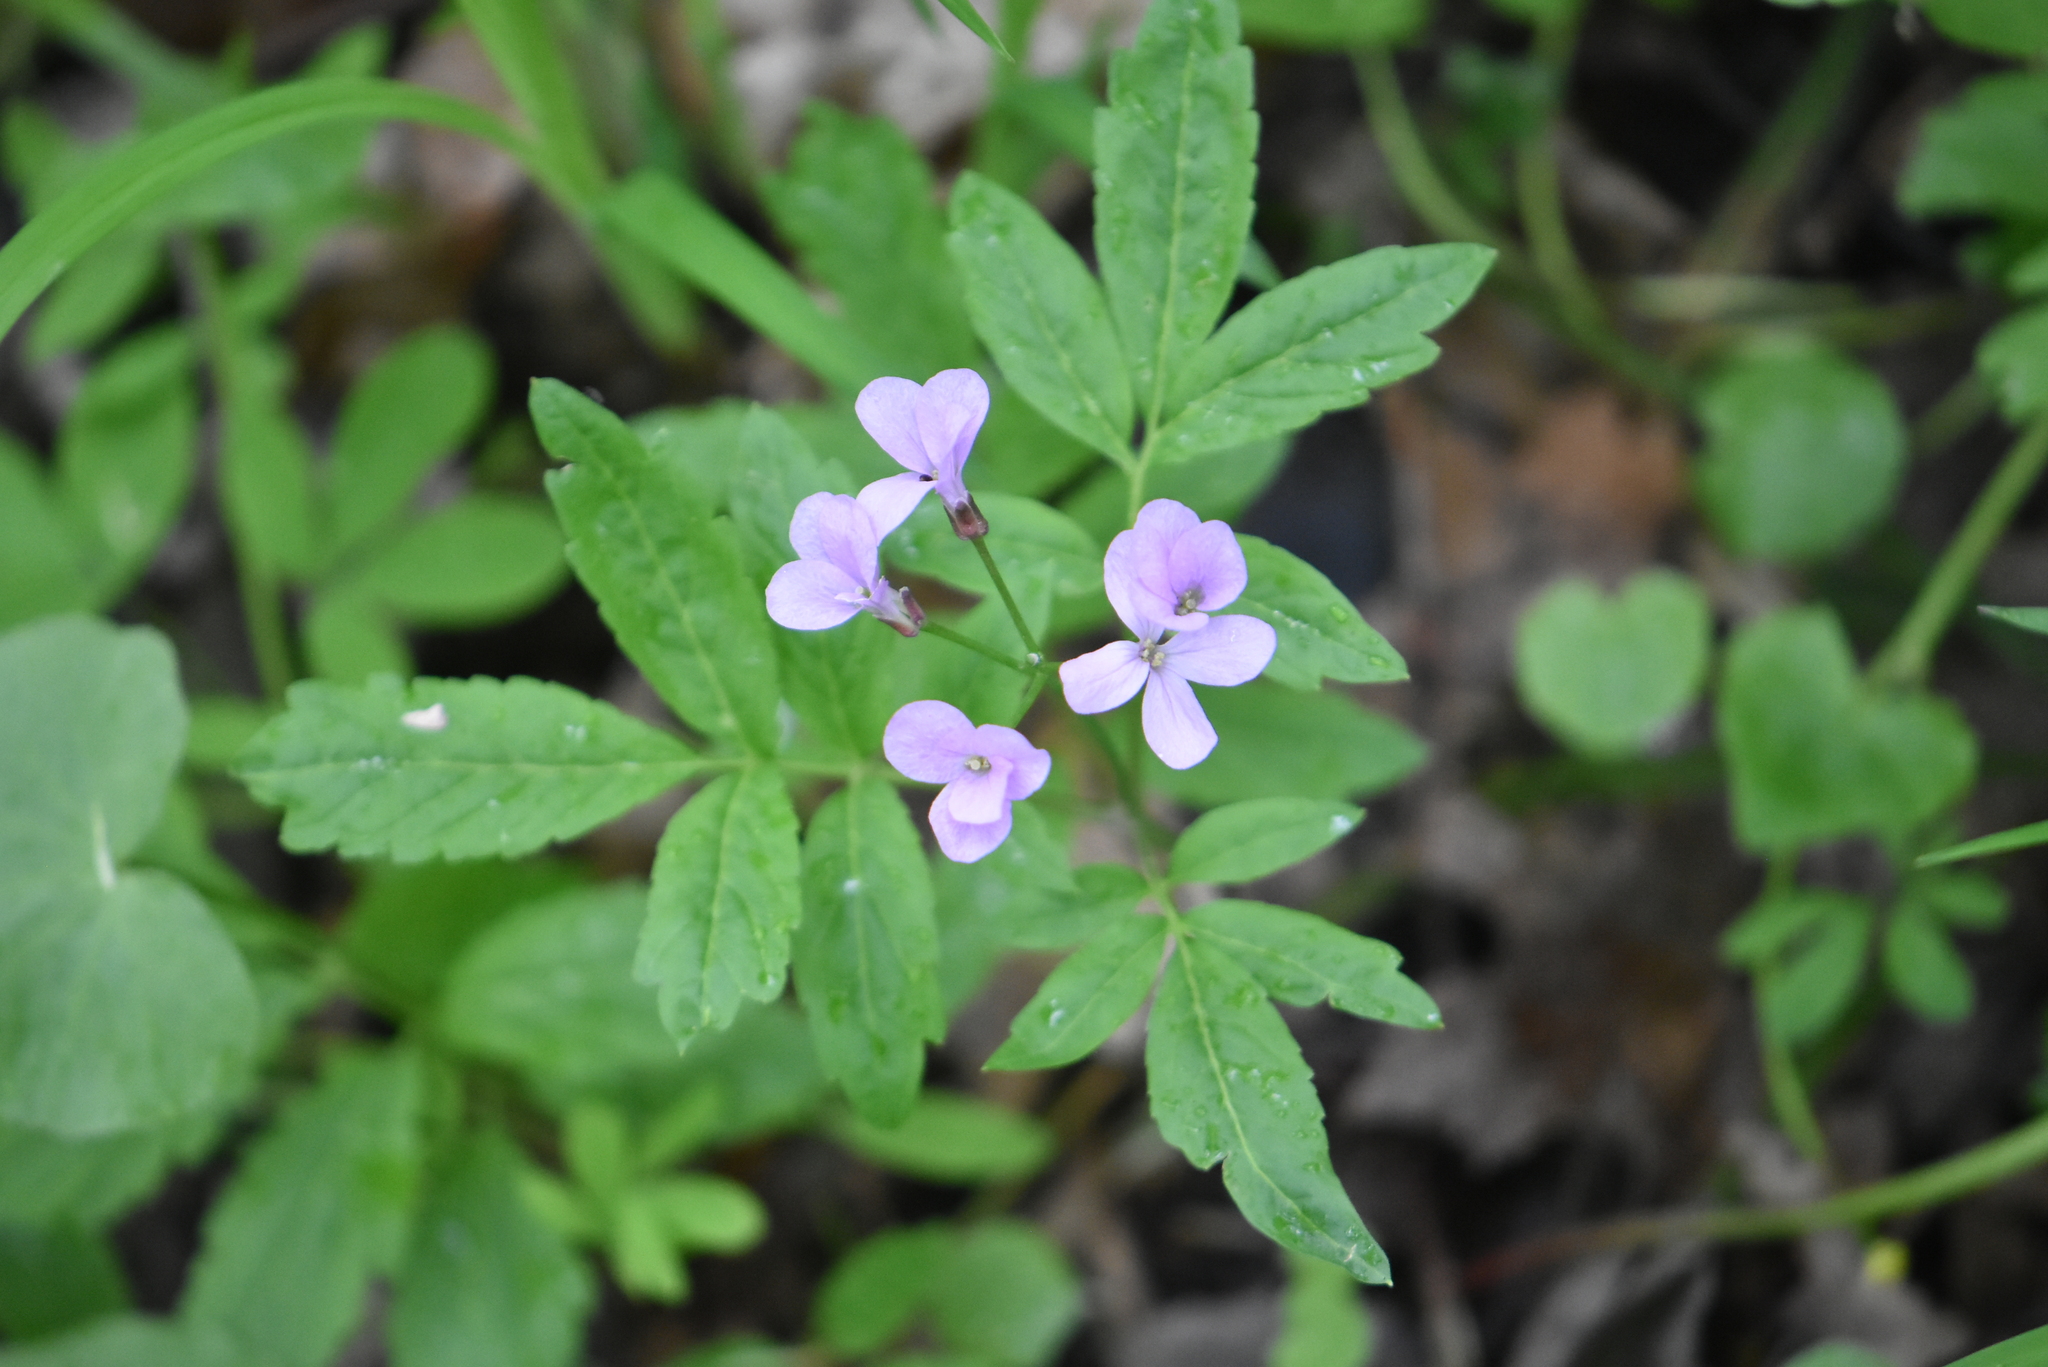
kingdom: Plantae
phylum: Tracheophyta
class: Magnoliopsida
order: Brassicales
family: Brassicaceae
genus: Cardamine
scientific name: Cardamine quinquefolia
